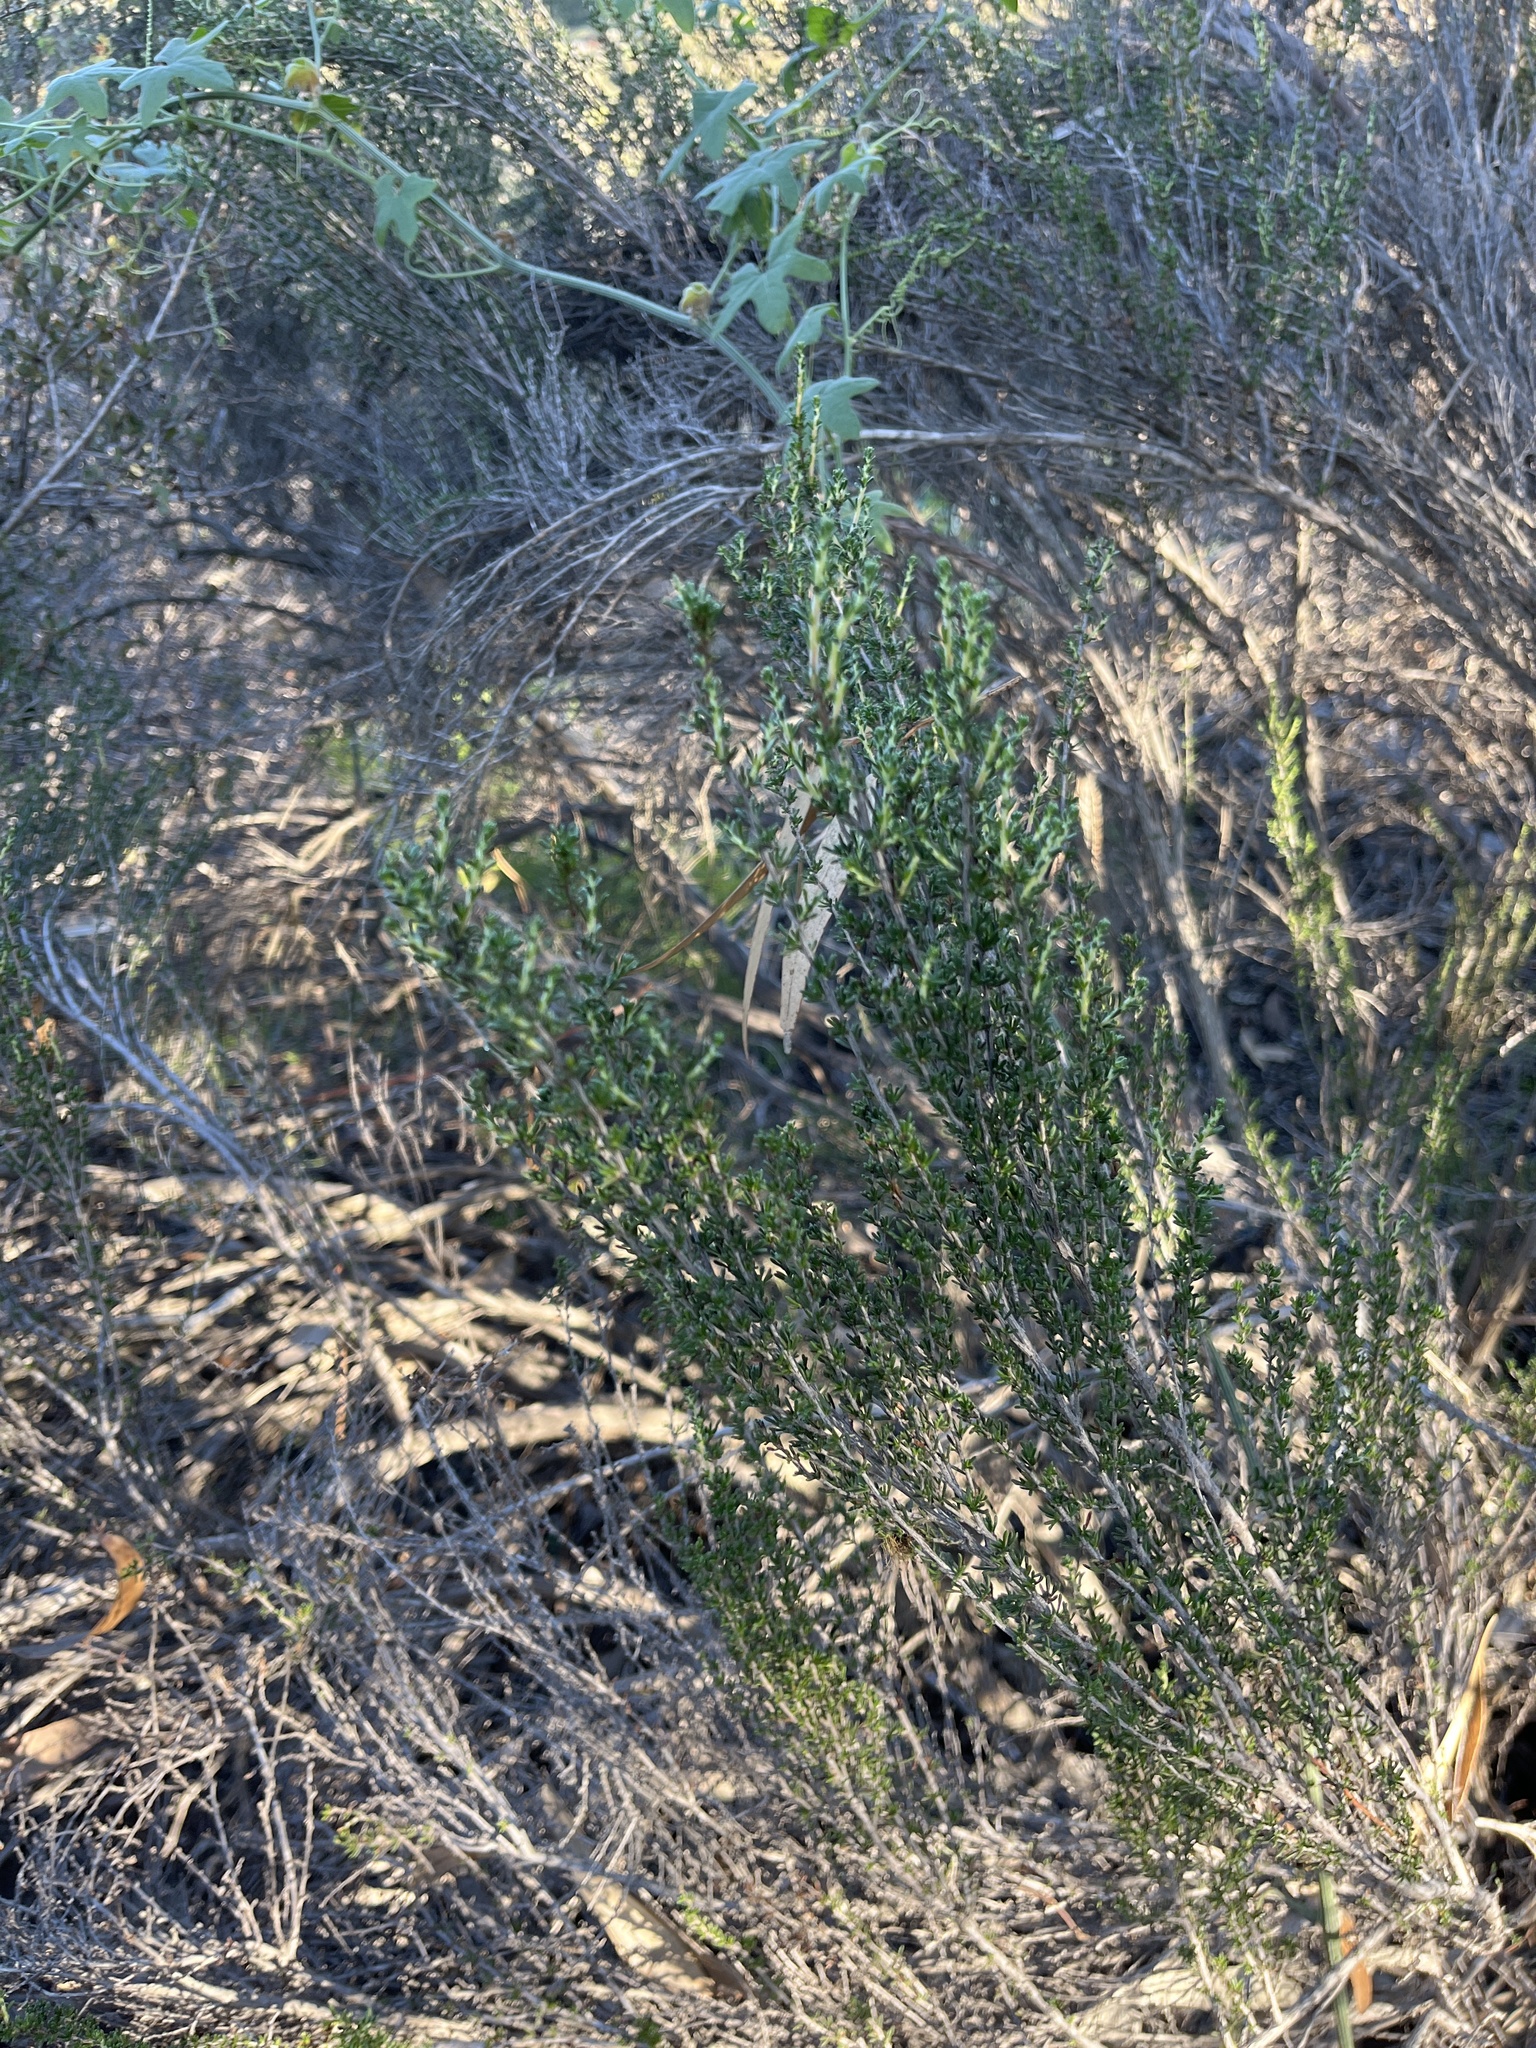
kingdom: Plantae
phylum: Tracheophyta
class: Magnoliopsida
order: Rosales
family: Rosaceae
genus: Adenostoma
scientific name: Adenostoma fasciculatum
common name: Chamise
